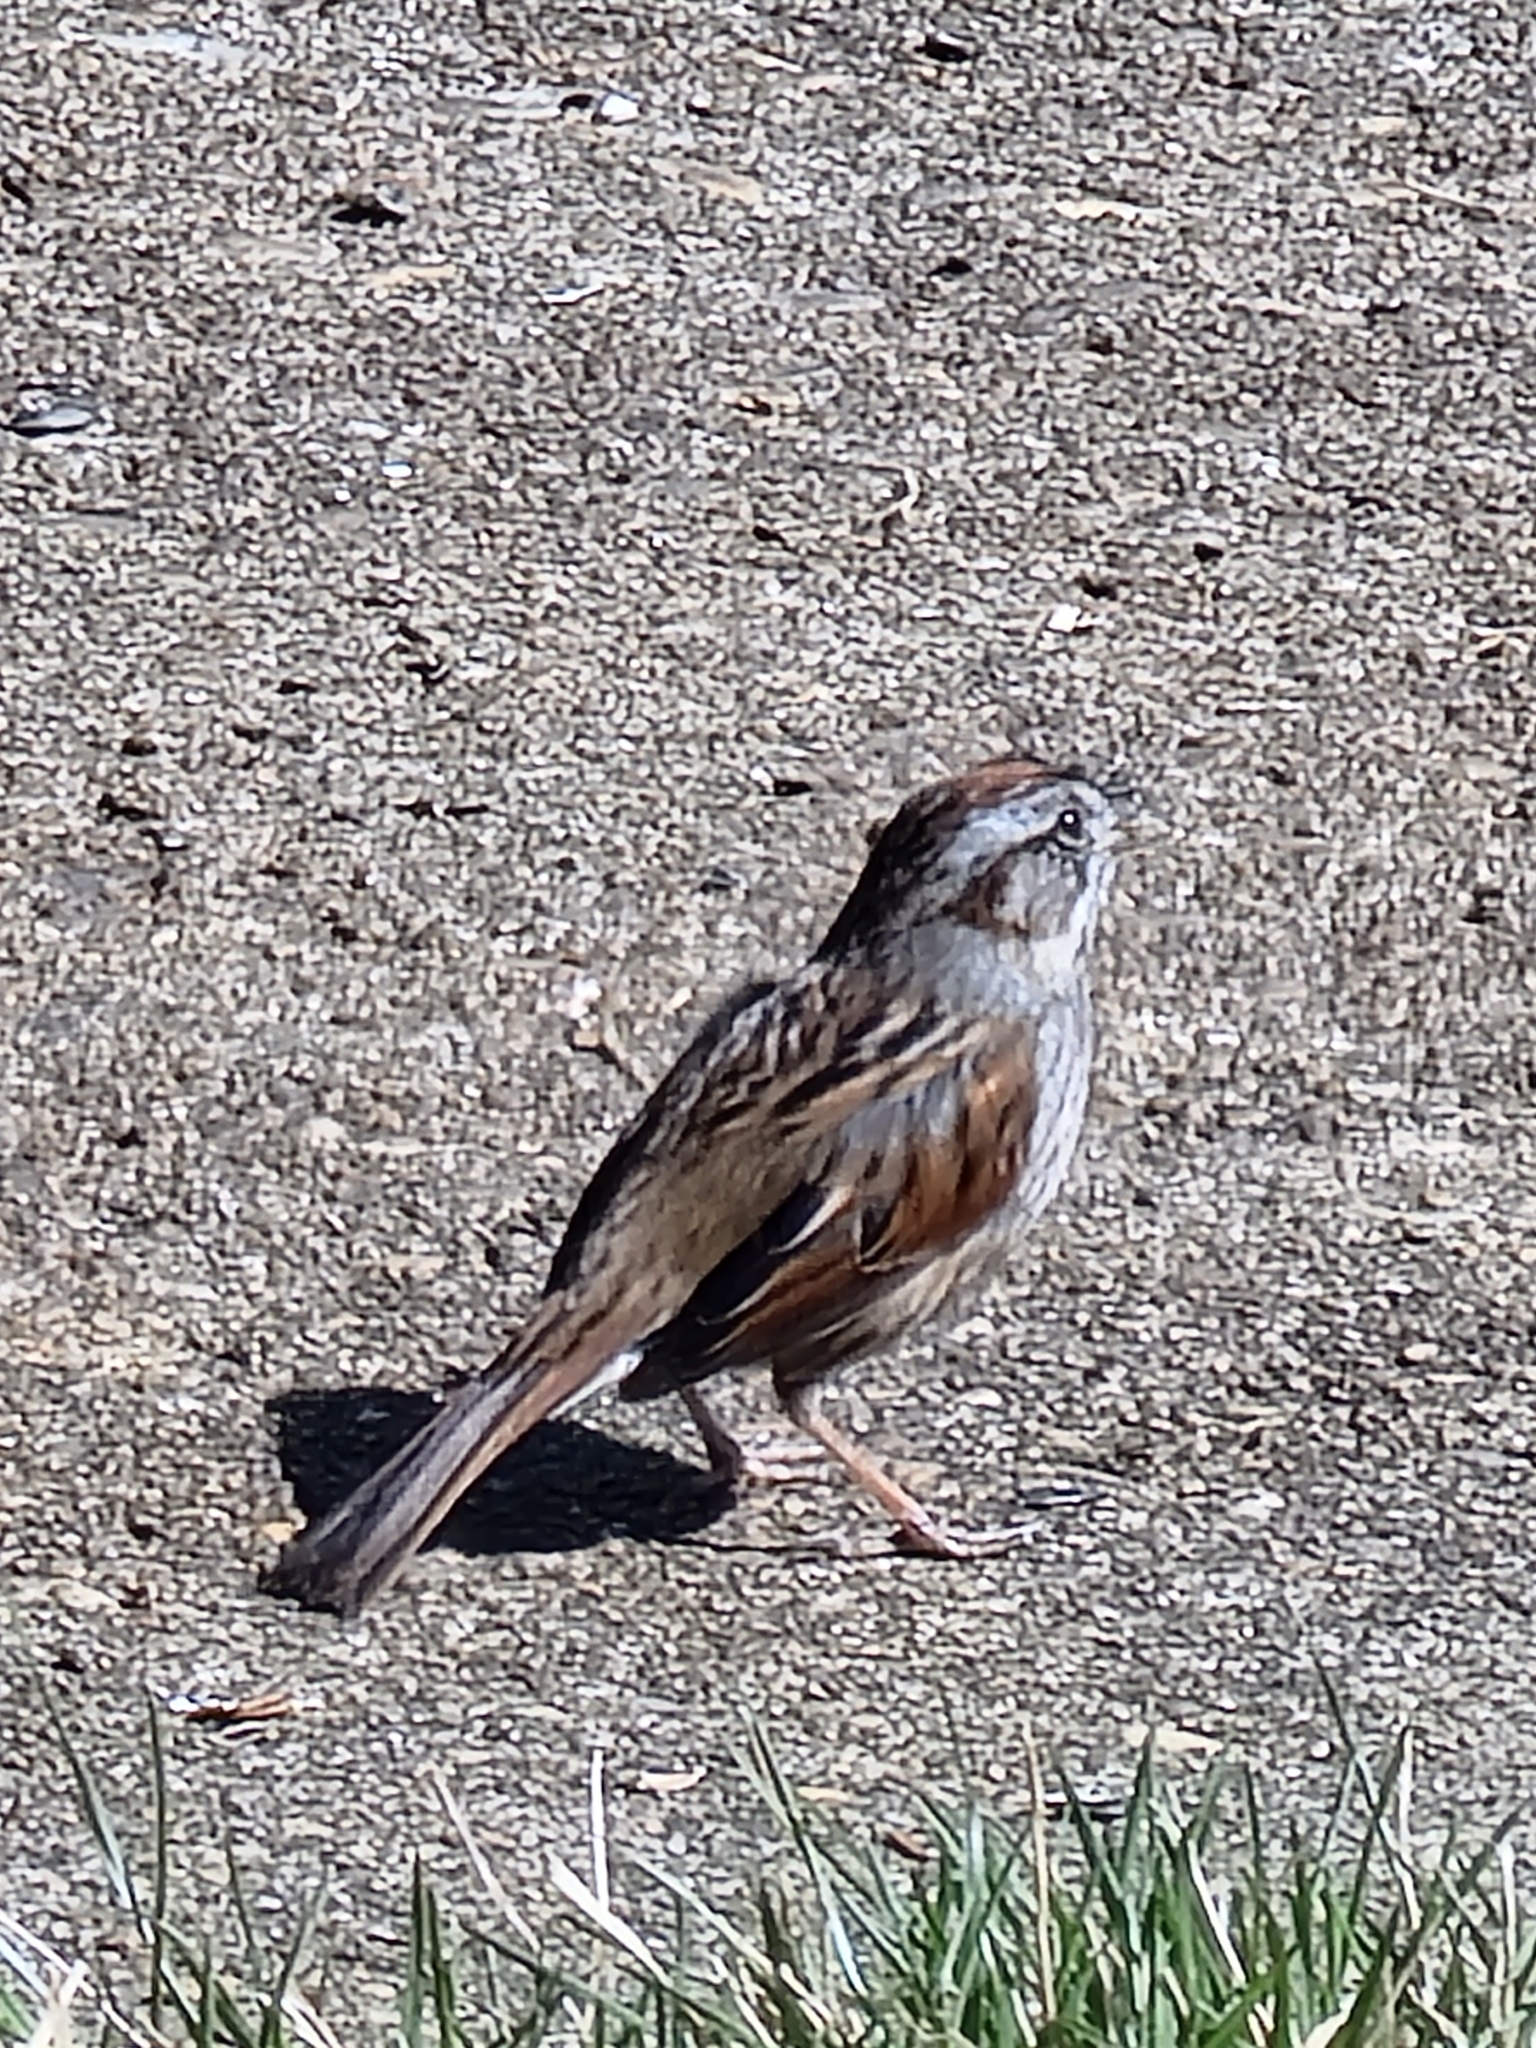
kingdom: Animalia
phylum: Chordata
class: Aves
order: Passeriformes
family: Passerellidae
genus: Melospiza
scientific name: Melospiza georgiana
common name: Swamp sparrow
